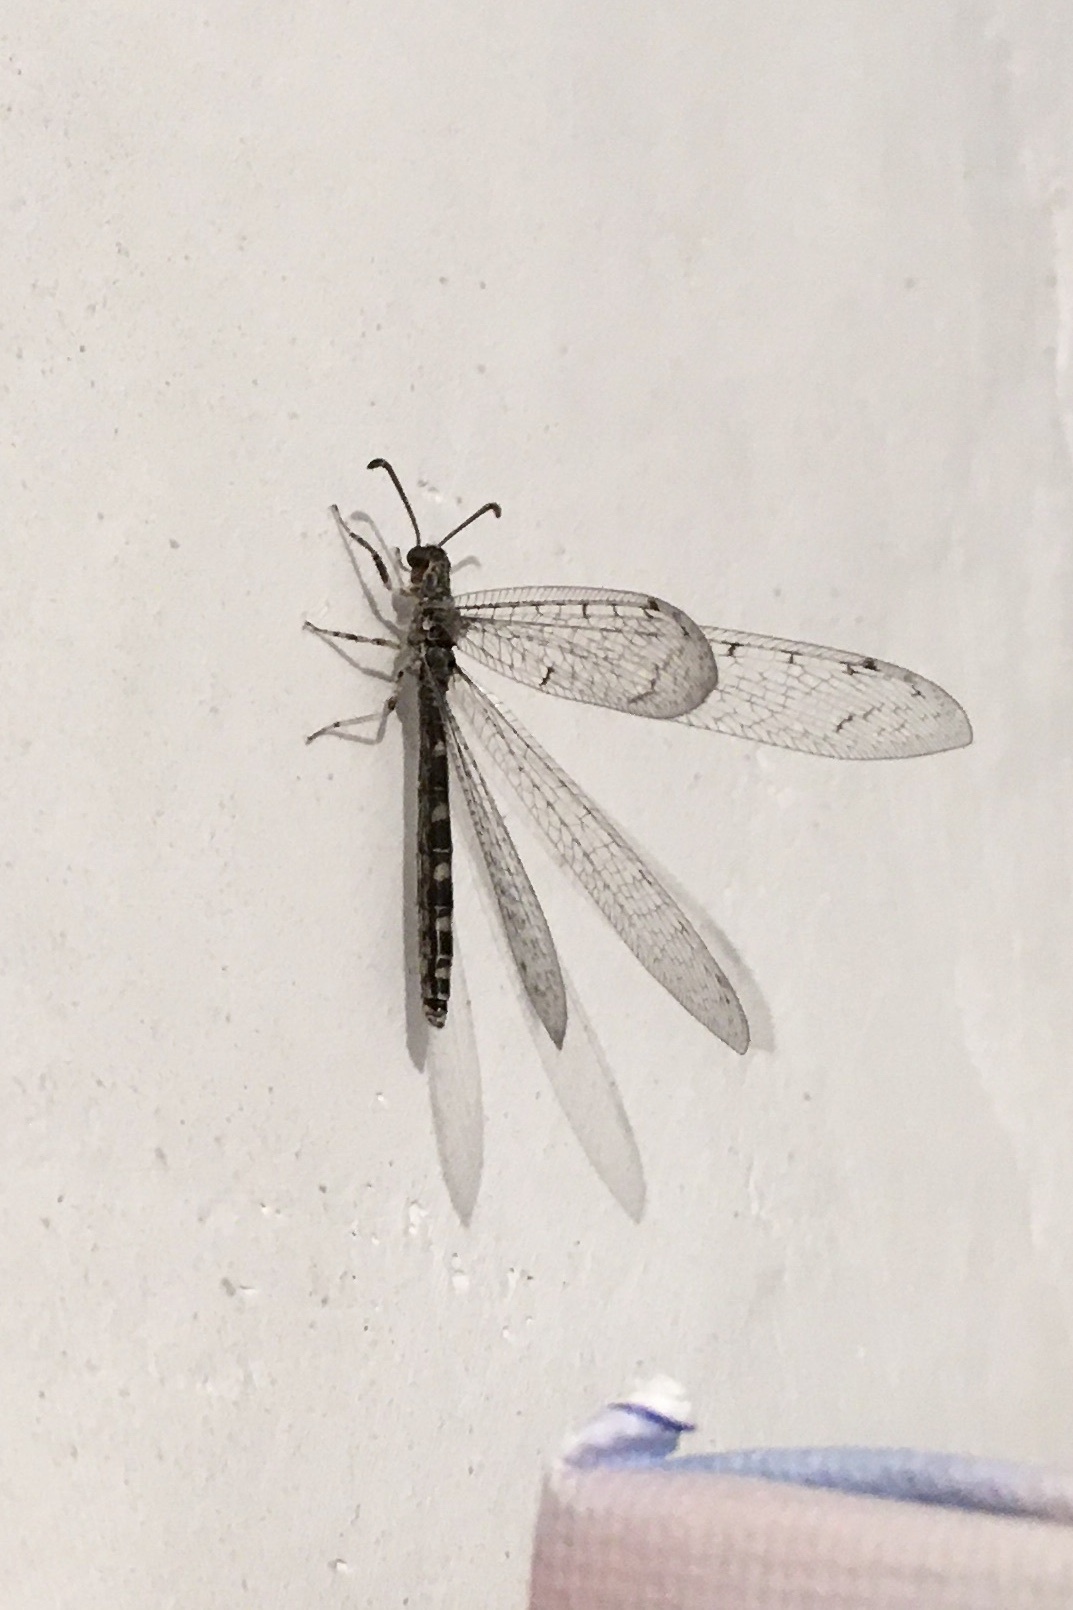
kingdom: Animalia
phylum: Arthropoda
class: Insecta
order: Neuroptera
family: Myrmeleontidae
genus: Neuroleon
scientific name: Neuroleon egenus
